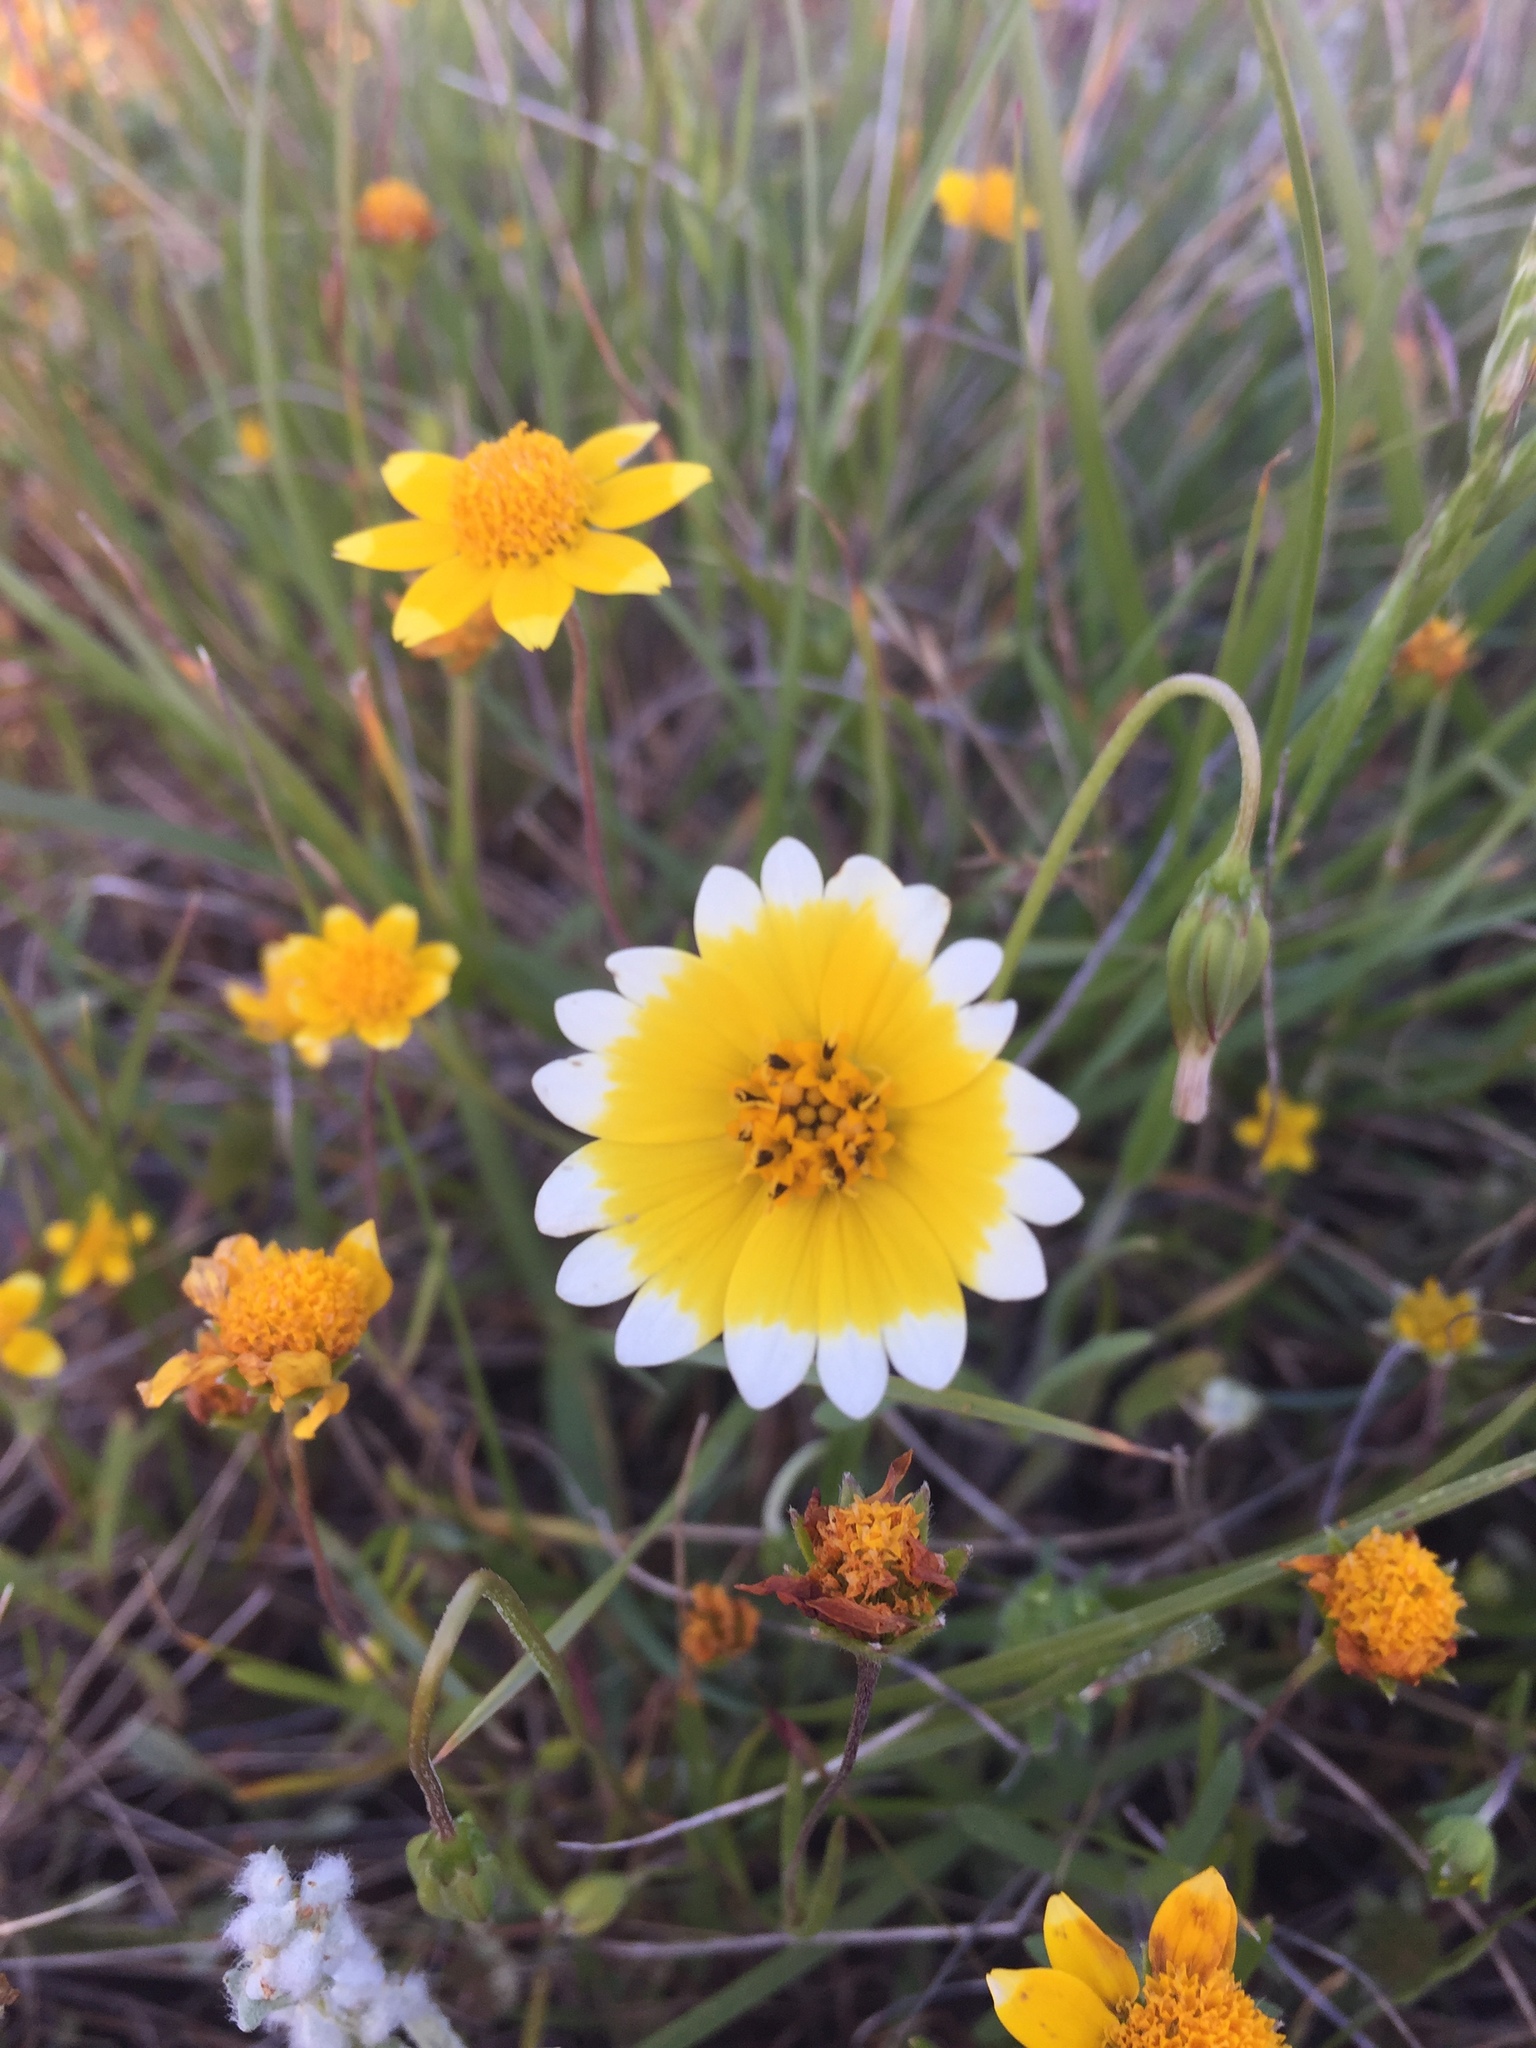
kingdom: Plantae
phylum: Tracheophyta
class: Magnoliopsida
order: Asterales
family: Asteraceae
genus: Layia
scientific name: Layia platyglossa
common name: Tidy-tips
